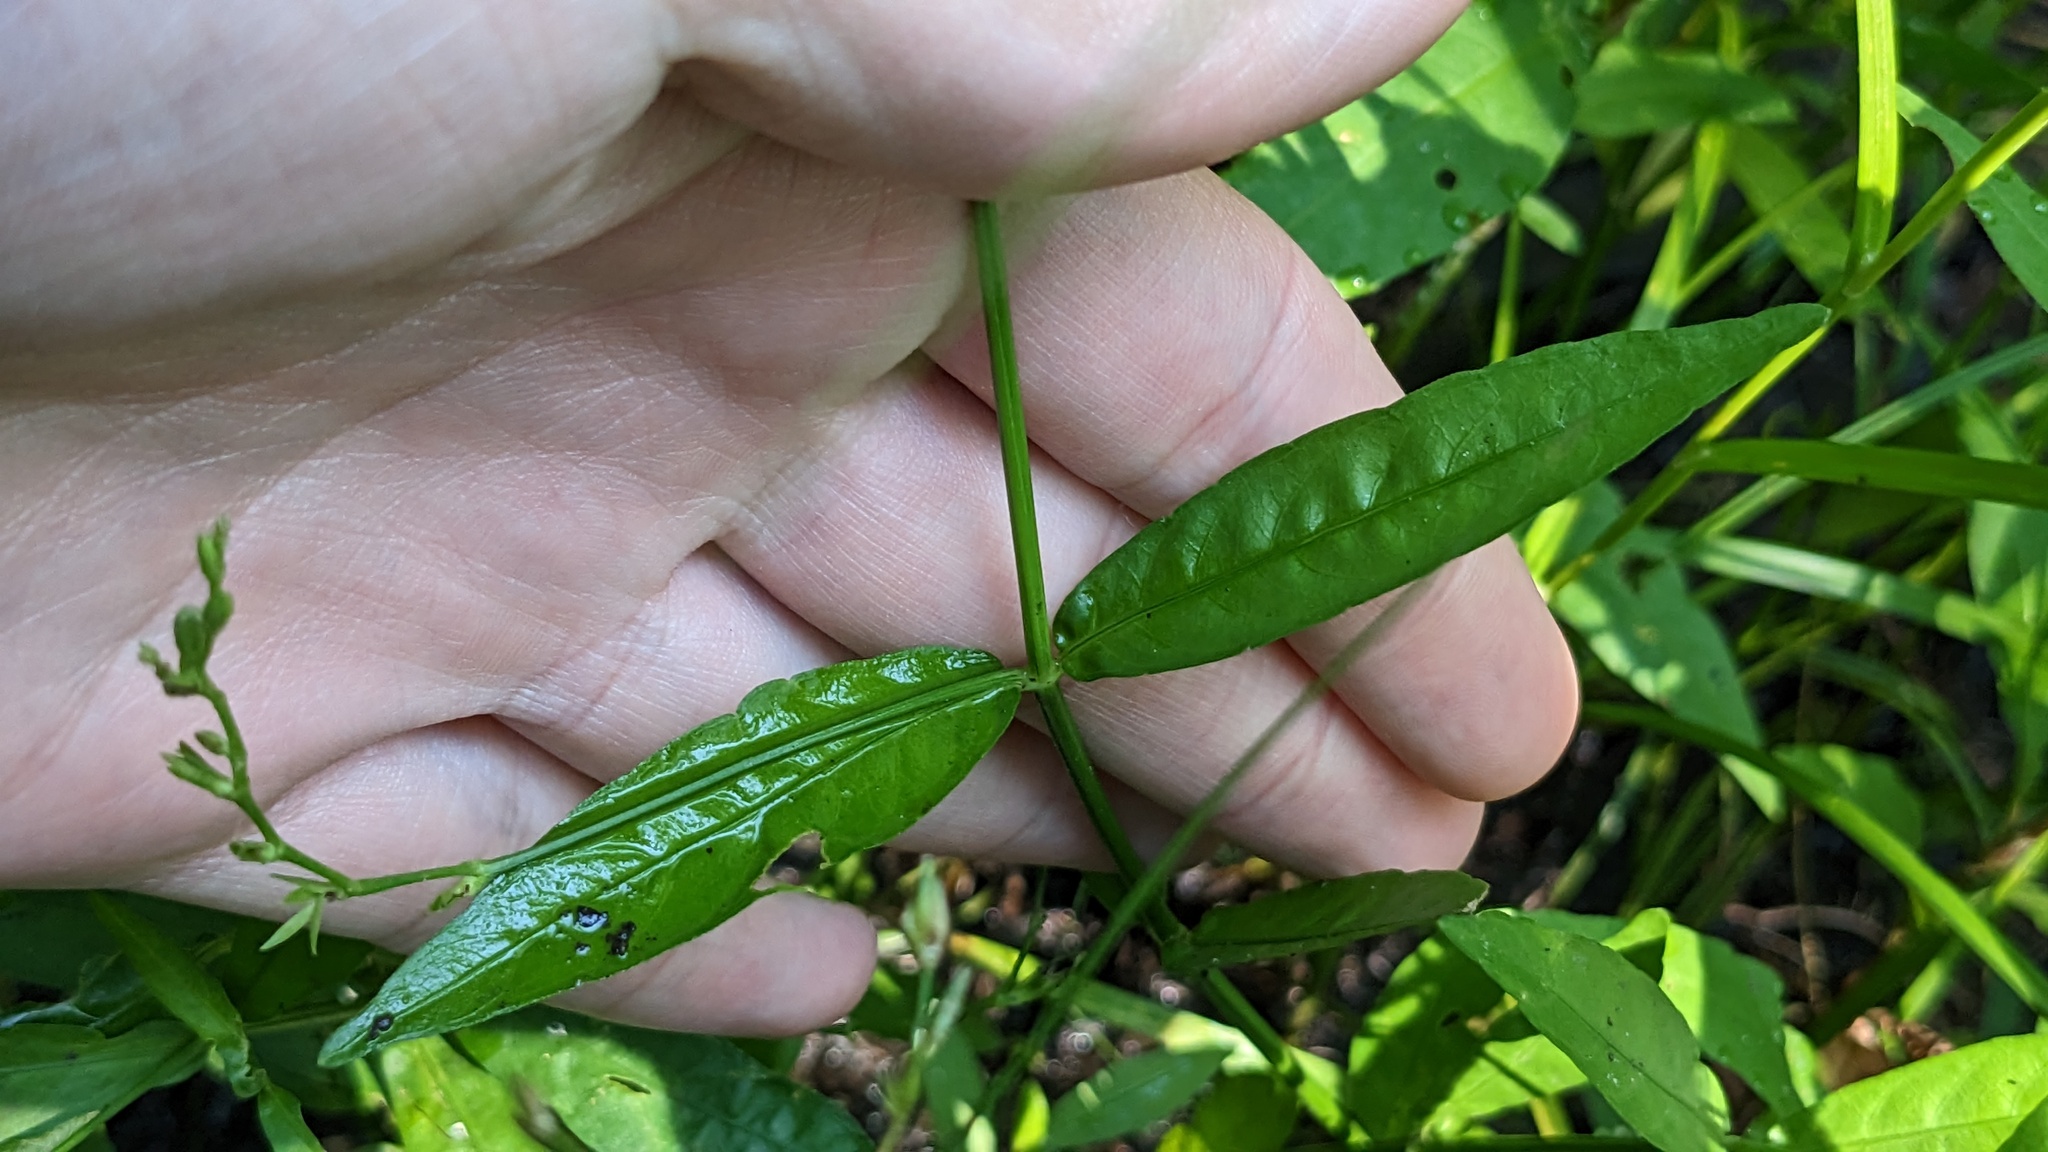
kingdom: Plantae
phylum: Tracheophyta
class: Magnoliopsida
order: Lamiales
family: Acanthaceae
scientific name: Acanthaceae
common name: Acanthaceae
